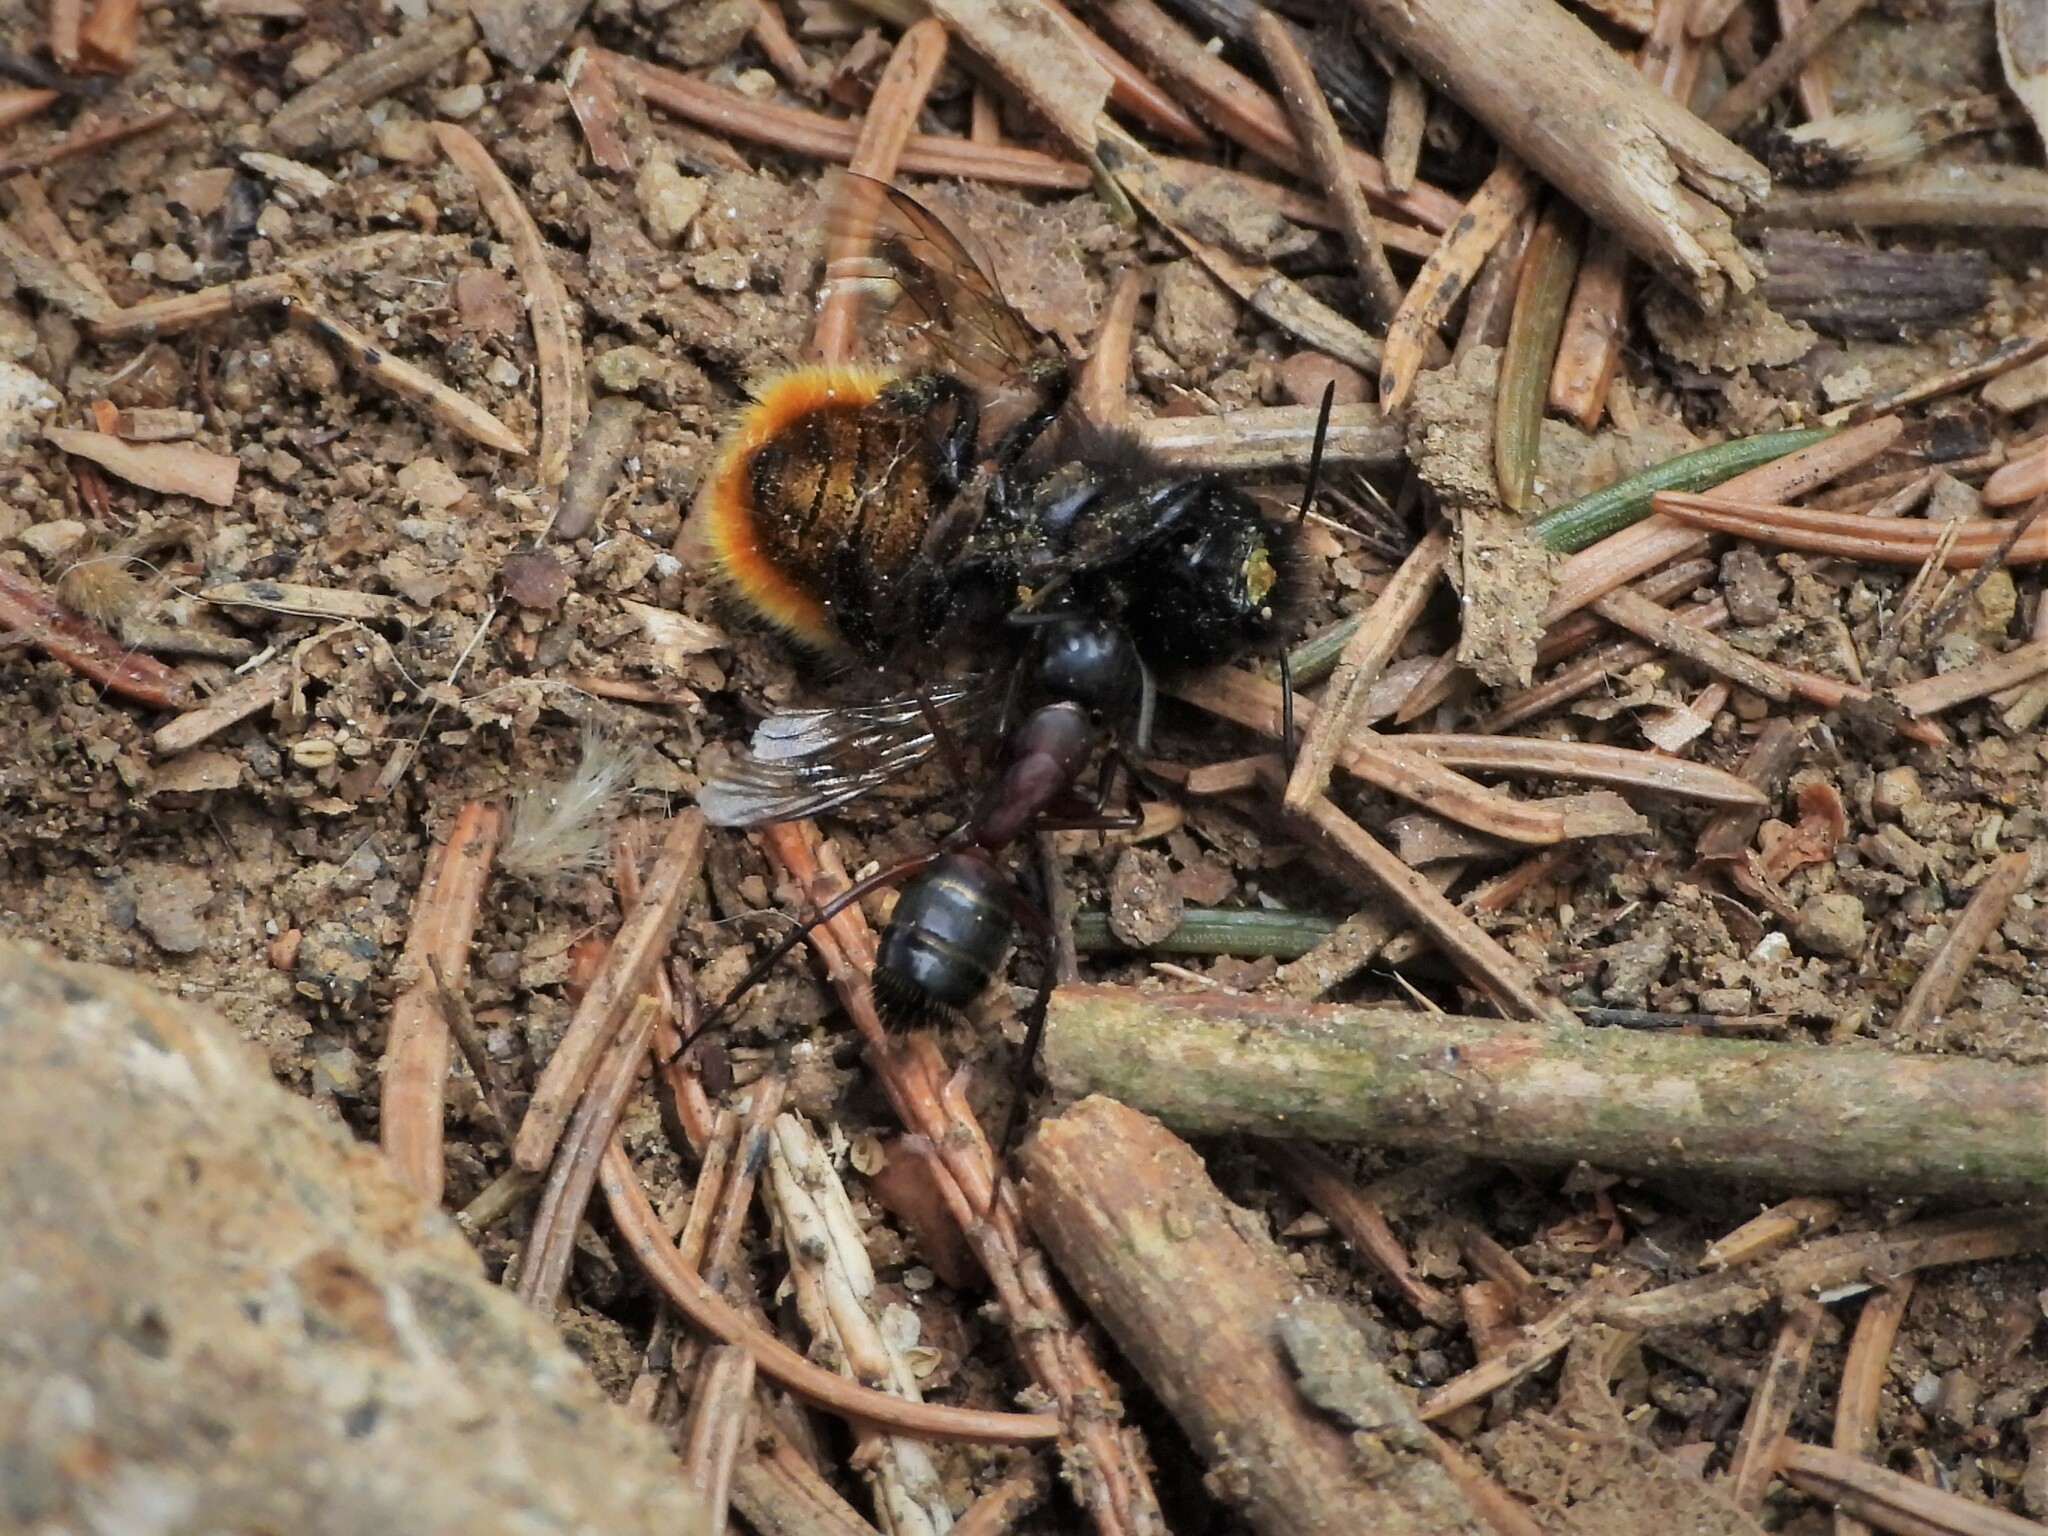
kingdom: Animalia
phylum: Arthropoda
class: Insecta
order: Hymenoptera
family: Formicidae
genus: Camponotus
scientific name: Camponotus ligniperdus
